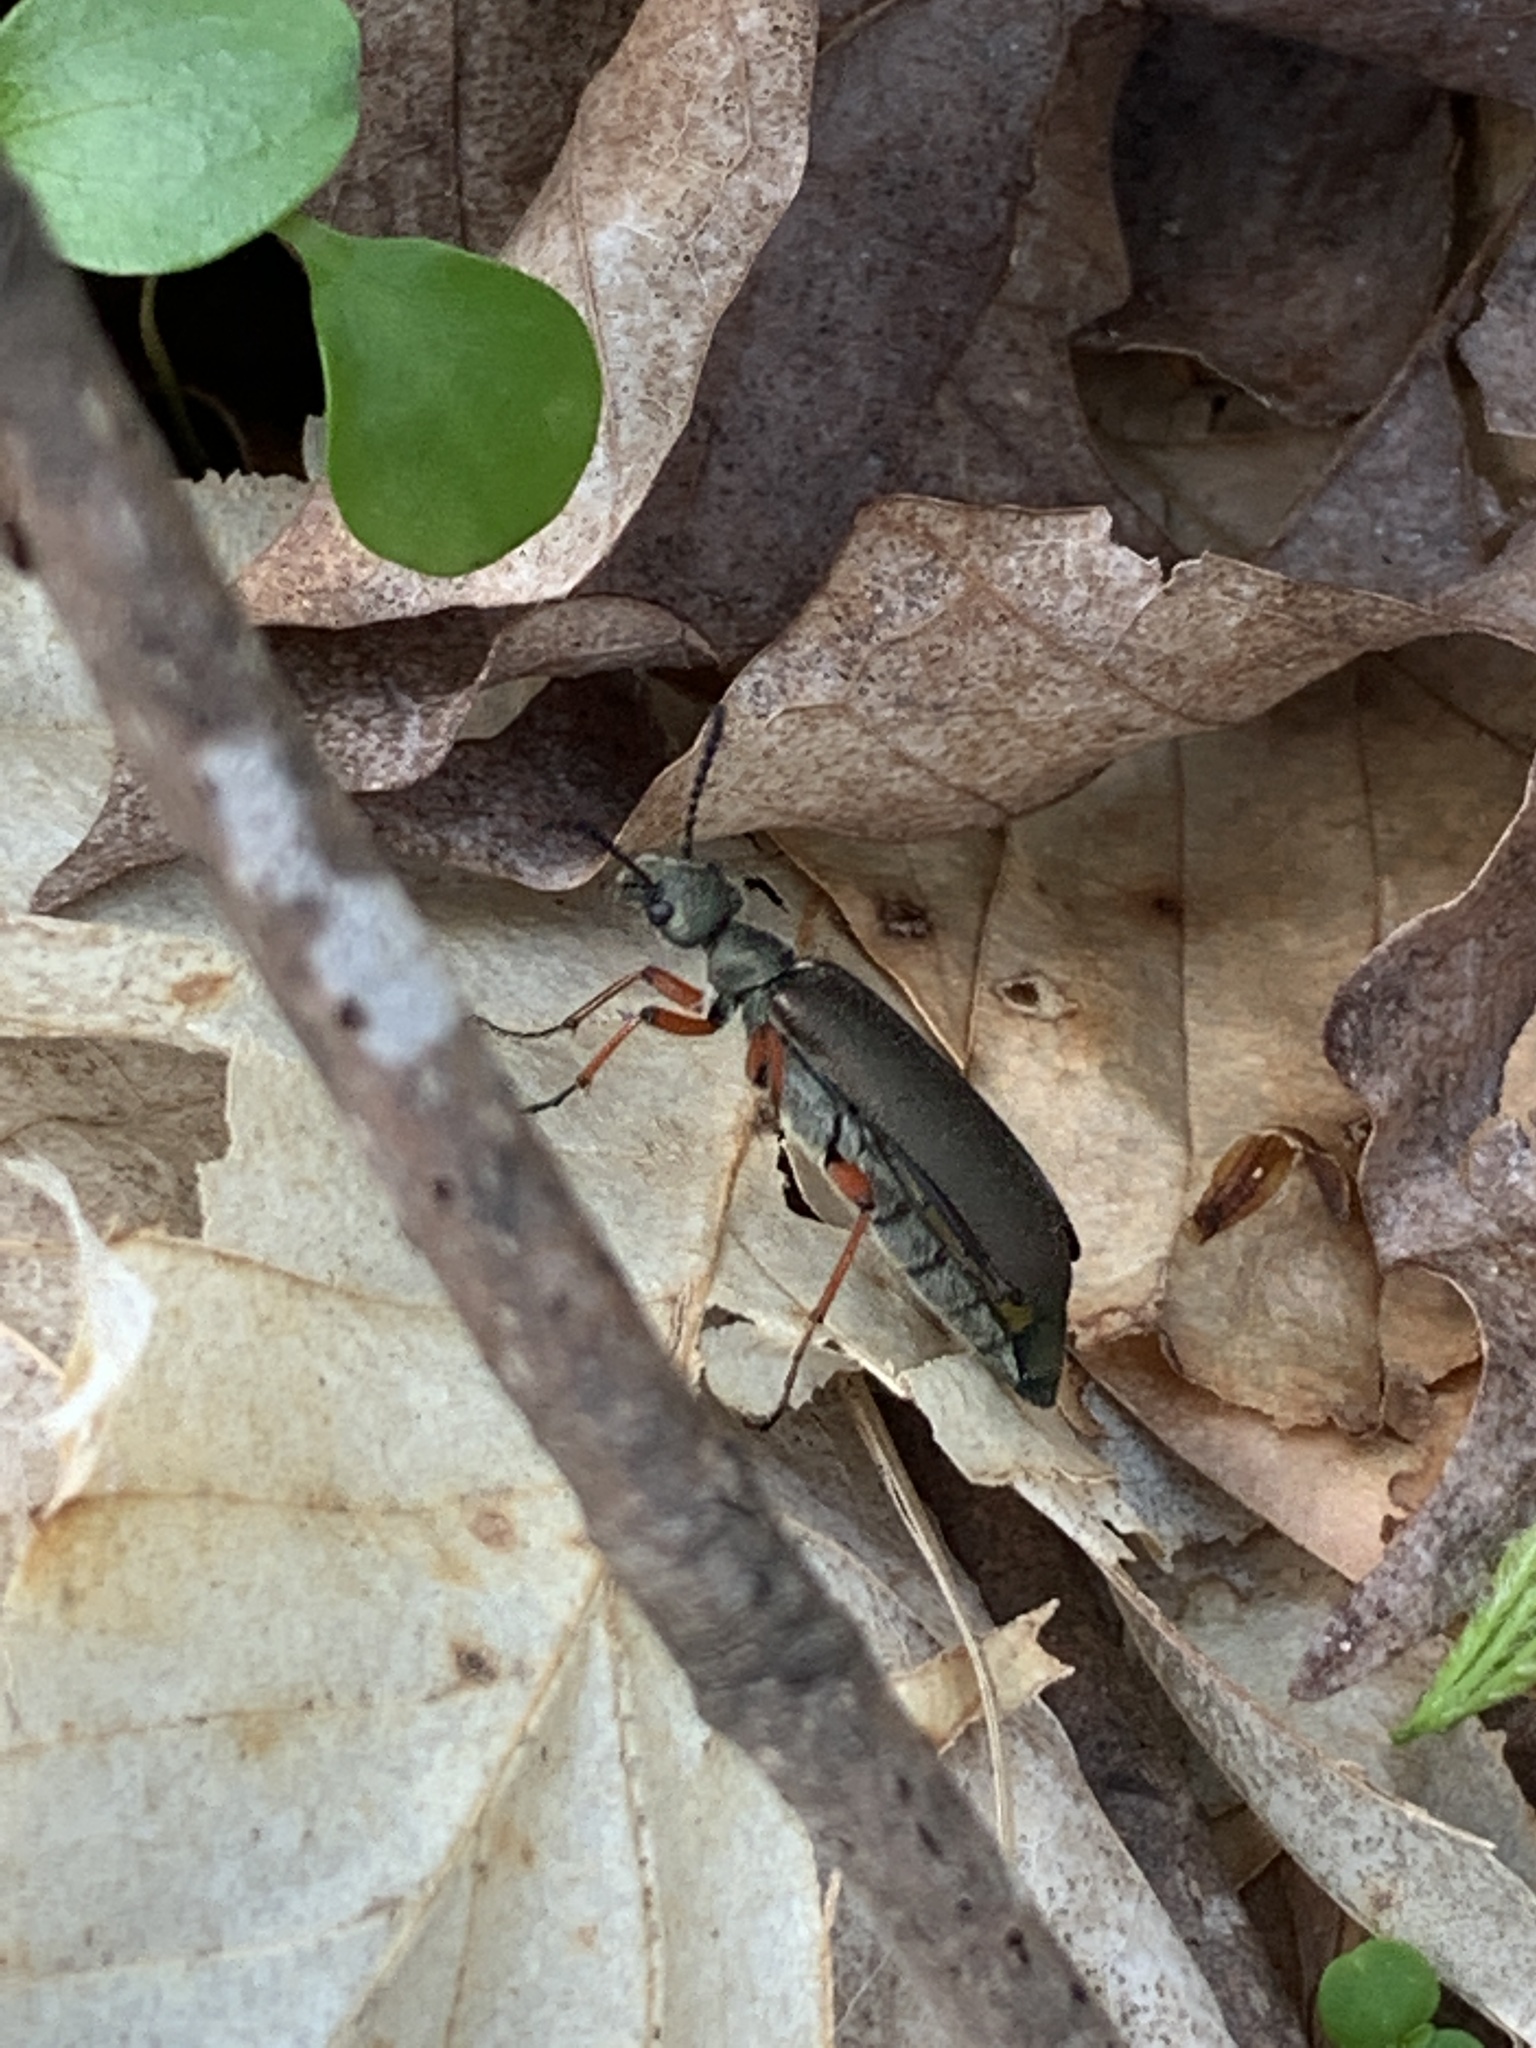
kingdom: Animalia
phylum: Arthropoda
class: Insecta
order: Coleoptera
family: Meloidae
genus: Lytta
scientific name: Lytta aenea
